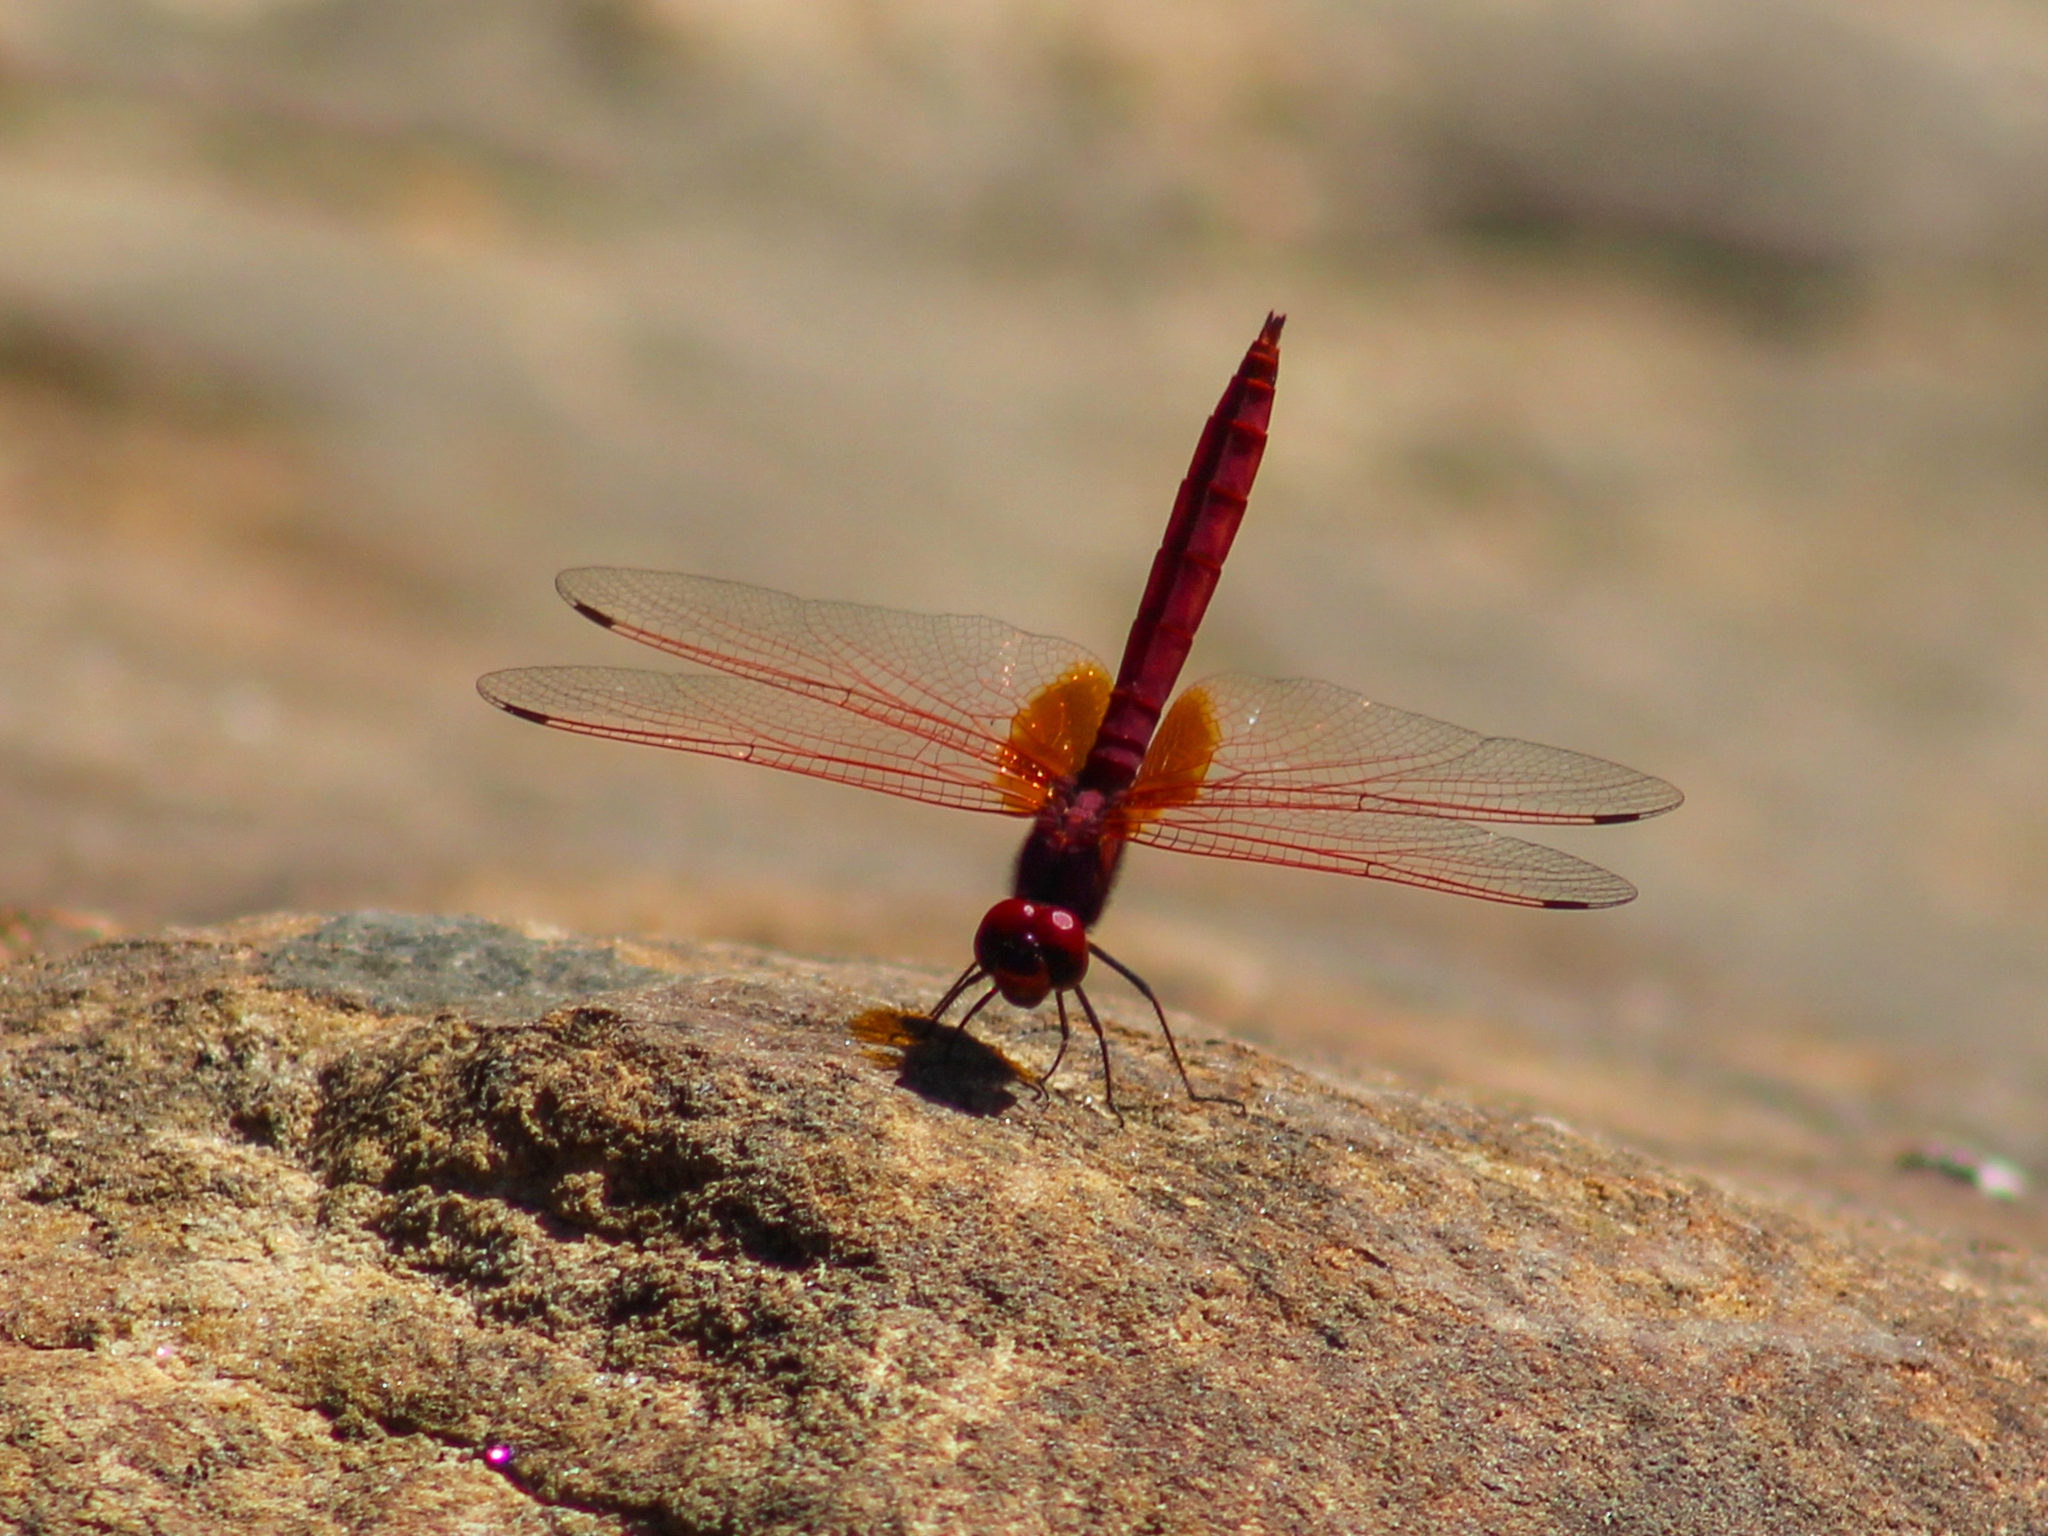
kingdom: Animalia
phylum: Arthropoda
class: Insecta
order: Odonata
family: Libellulidae
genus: Trithemis
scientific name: Trithemis aurora
